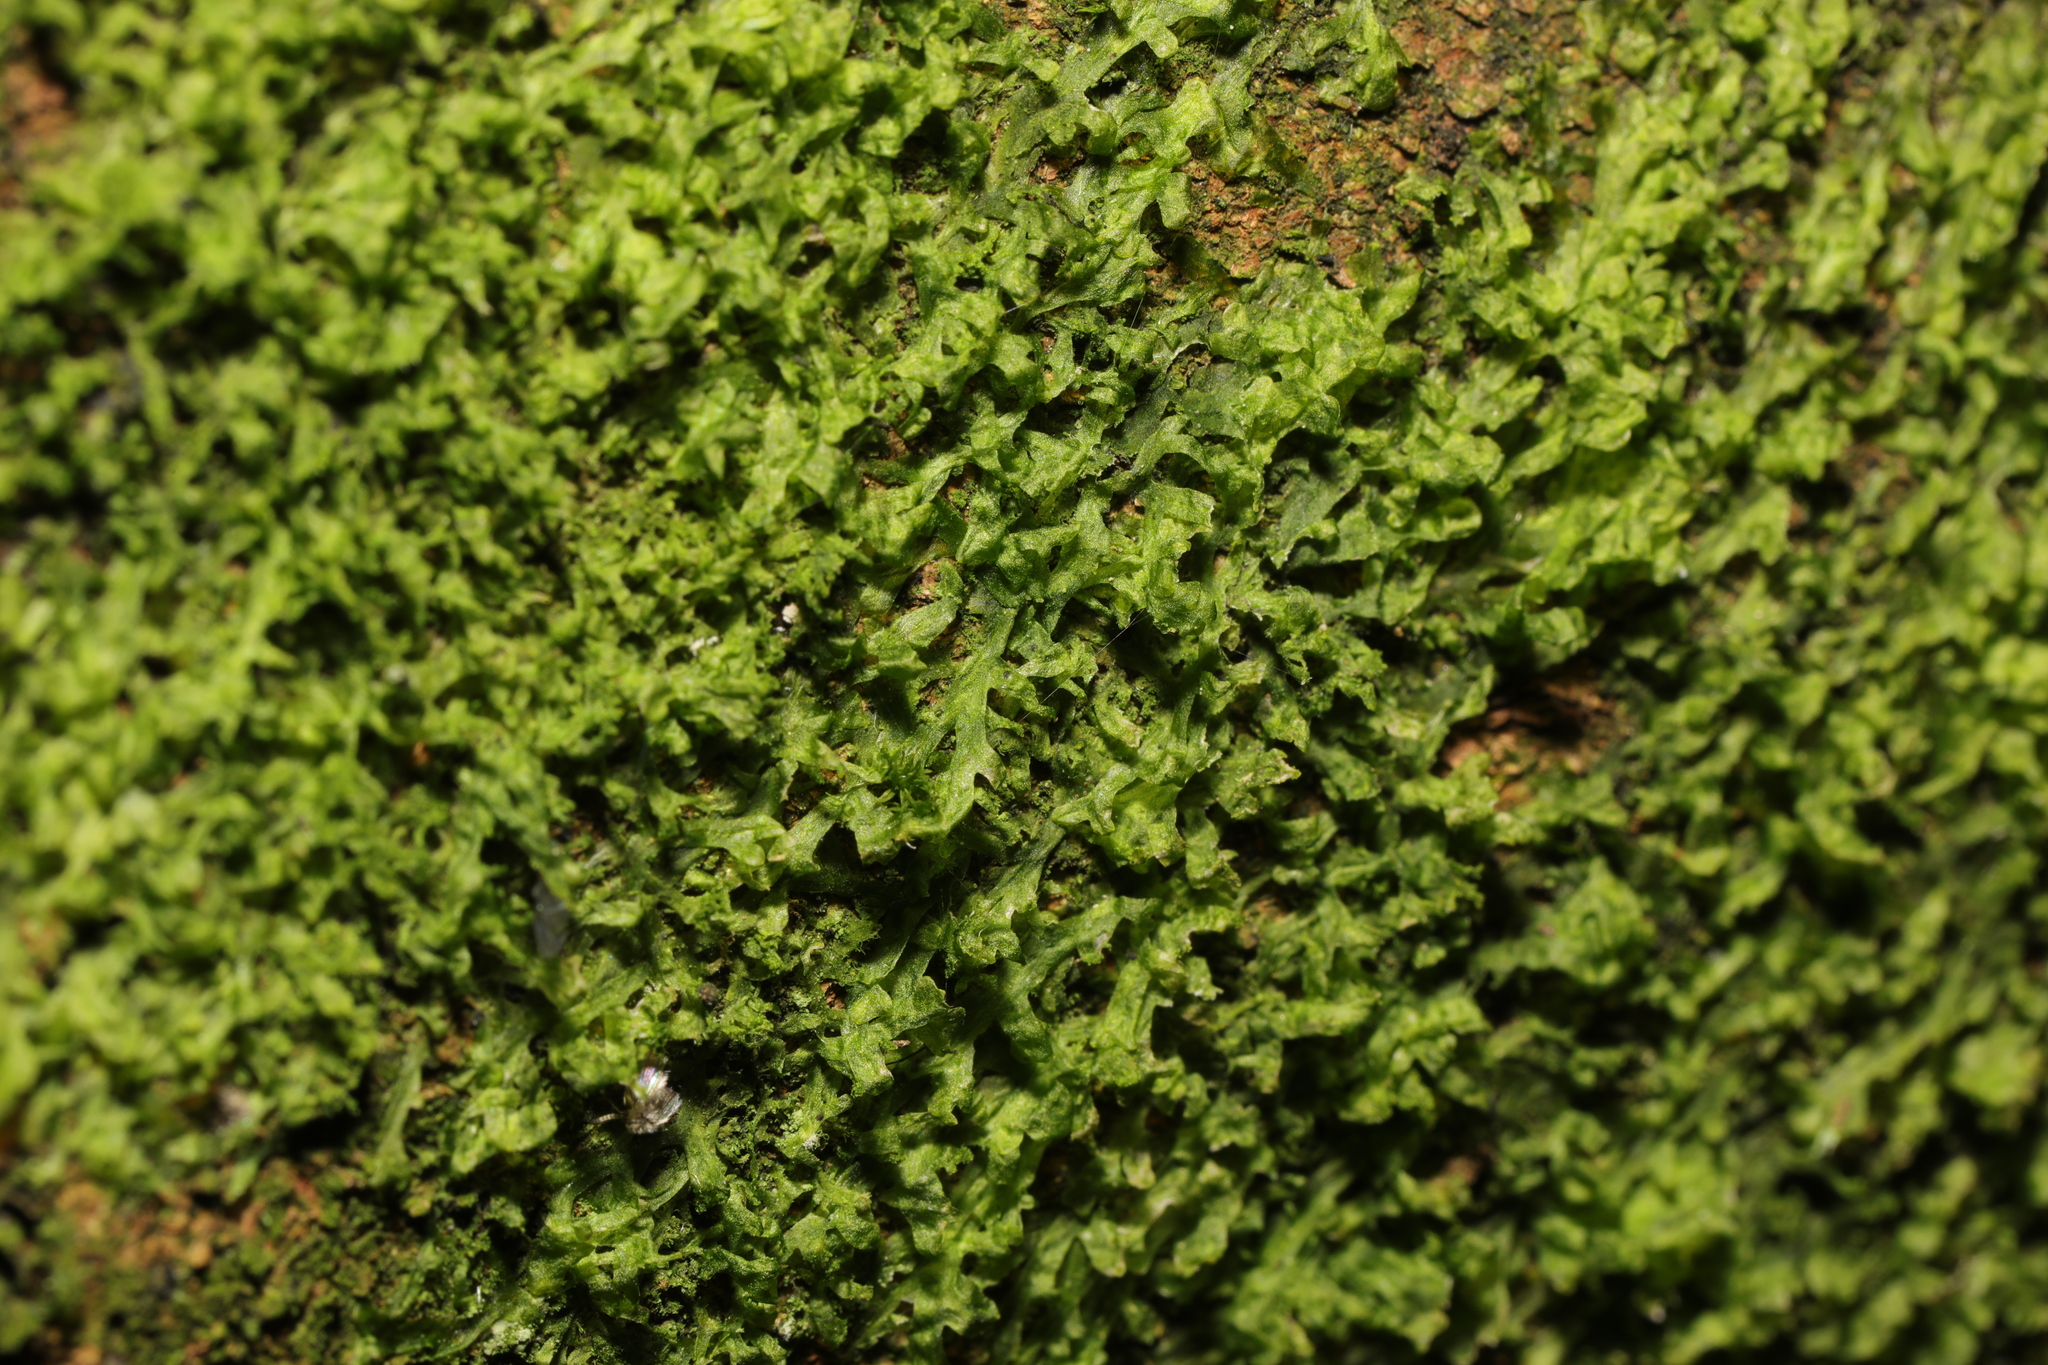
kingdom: Plantae
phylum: Marchantiophyta
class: Jungermanniopsida
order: Metzgeriales
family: Metzgeriaceae
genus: Metzgeria
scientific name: Metzgeria furcata
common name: Forked veilwort
